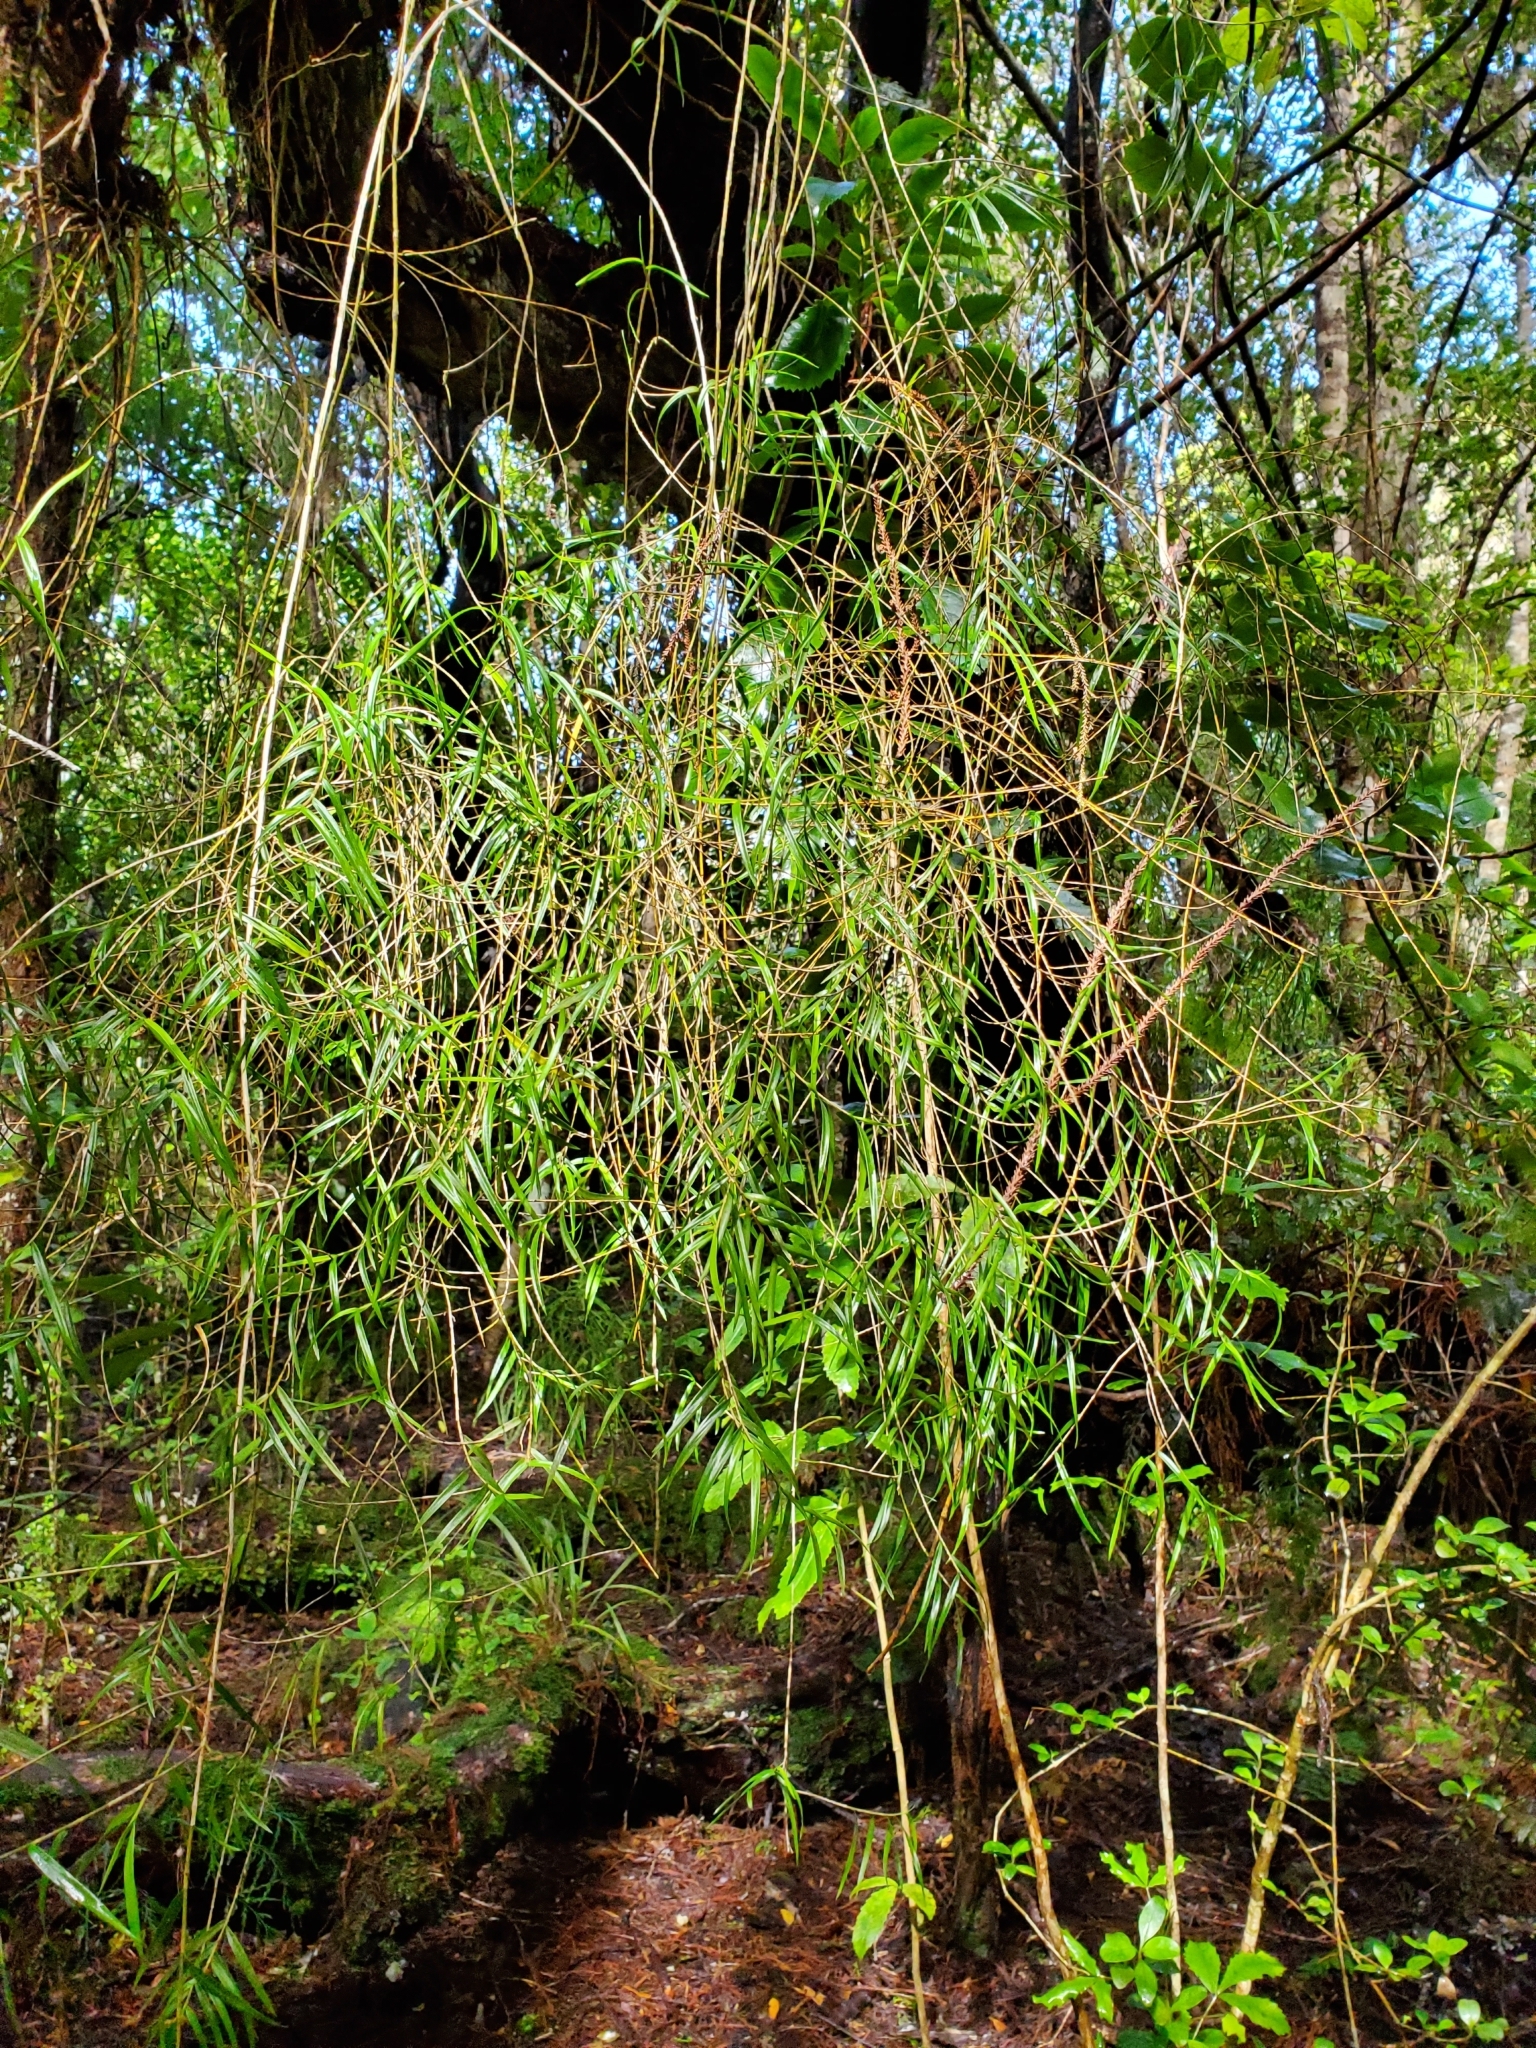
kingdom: Plantae
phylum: Tracheophyta
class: Liliopsida
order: Asparagales
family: Orchidaceae
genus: Dendrobium
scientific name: Dendrobium cunninghamii
